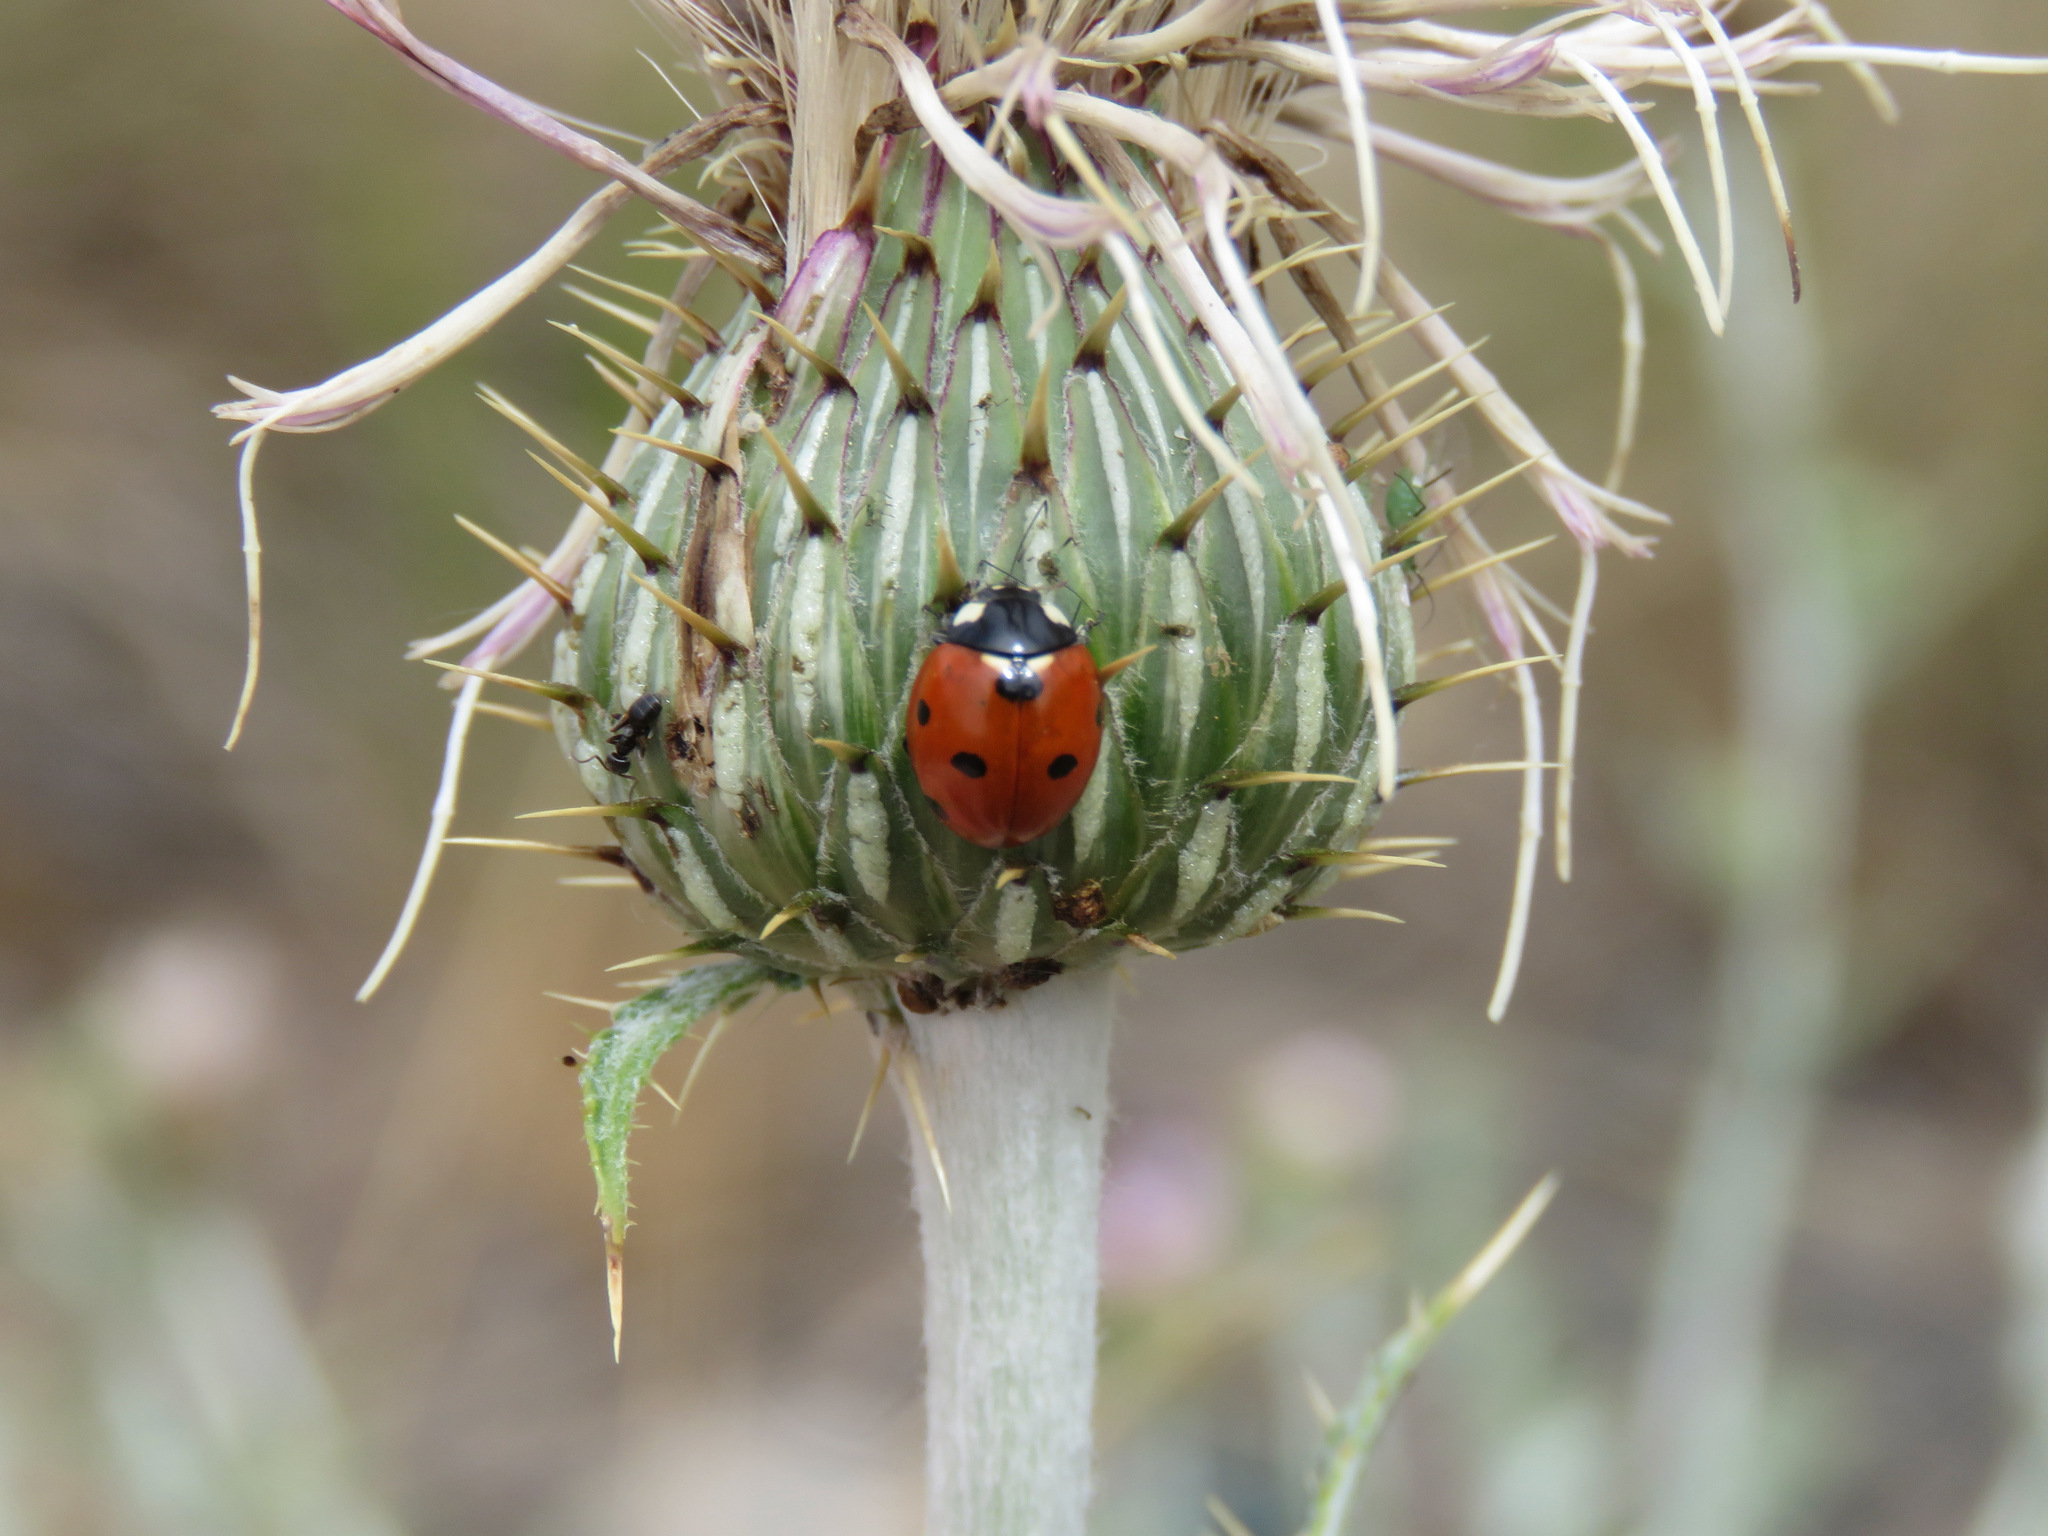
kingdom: Animalia
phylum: Arthropoda
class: Insecta
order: Coleoptera
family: Coccinellidae
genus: Coccinella
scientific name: Coccinella septempunctata
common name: Sevenspotted lady beetle
